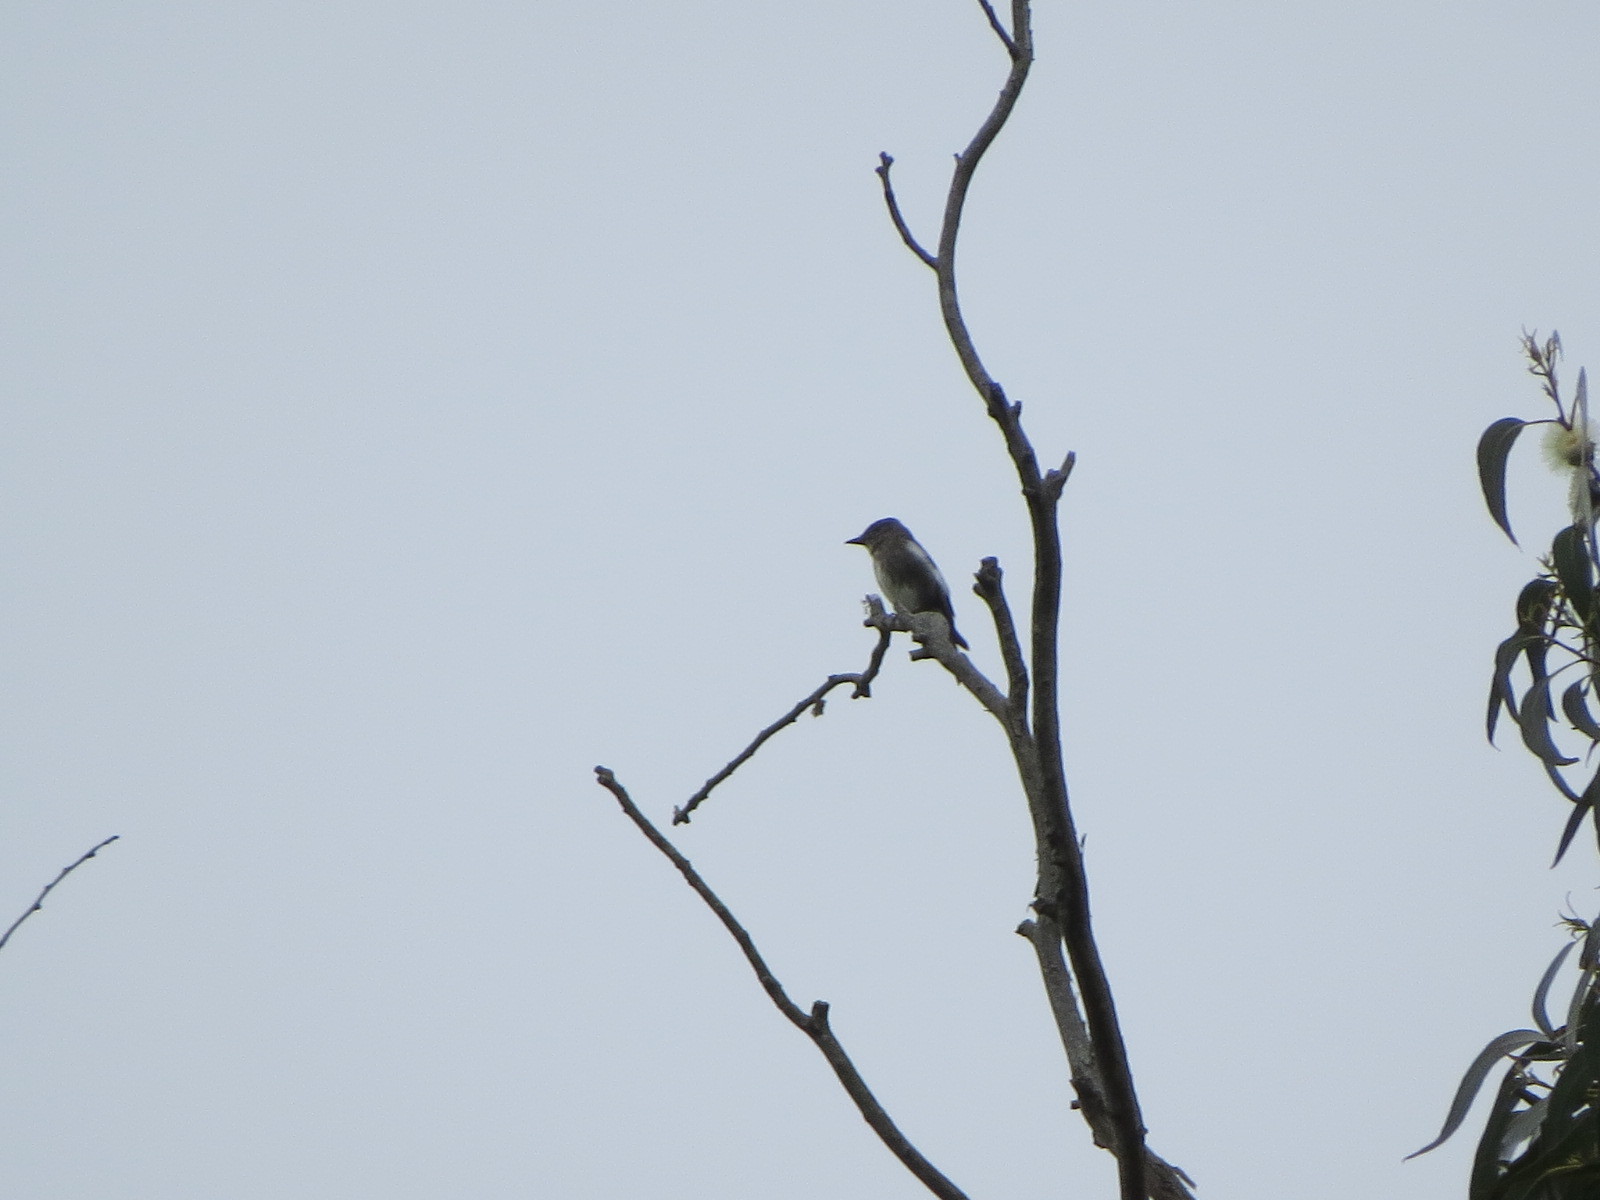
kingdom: Animalia
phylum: Chordata
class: Aves
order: Passeriformes
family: Tyrannidae
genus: Contopus
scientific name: Contopus cooperi
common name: Olive-sided flycatcher
